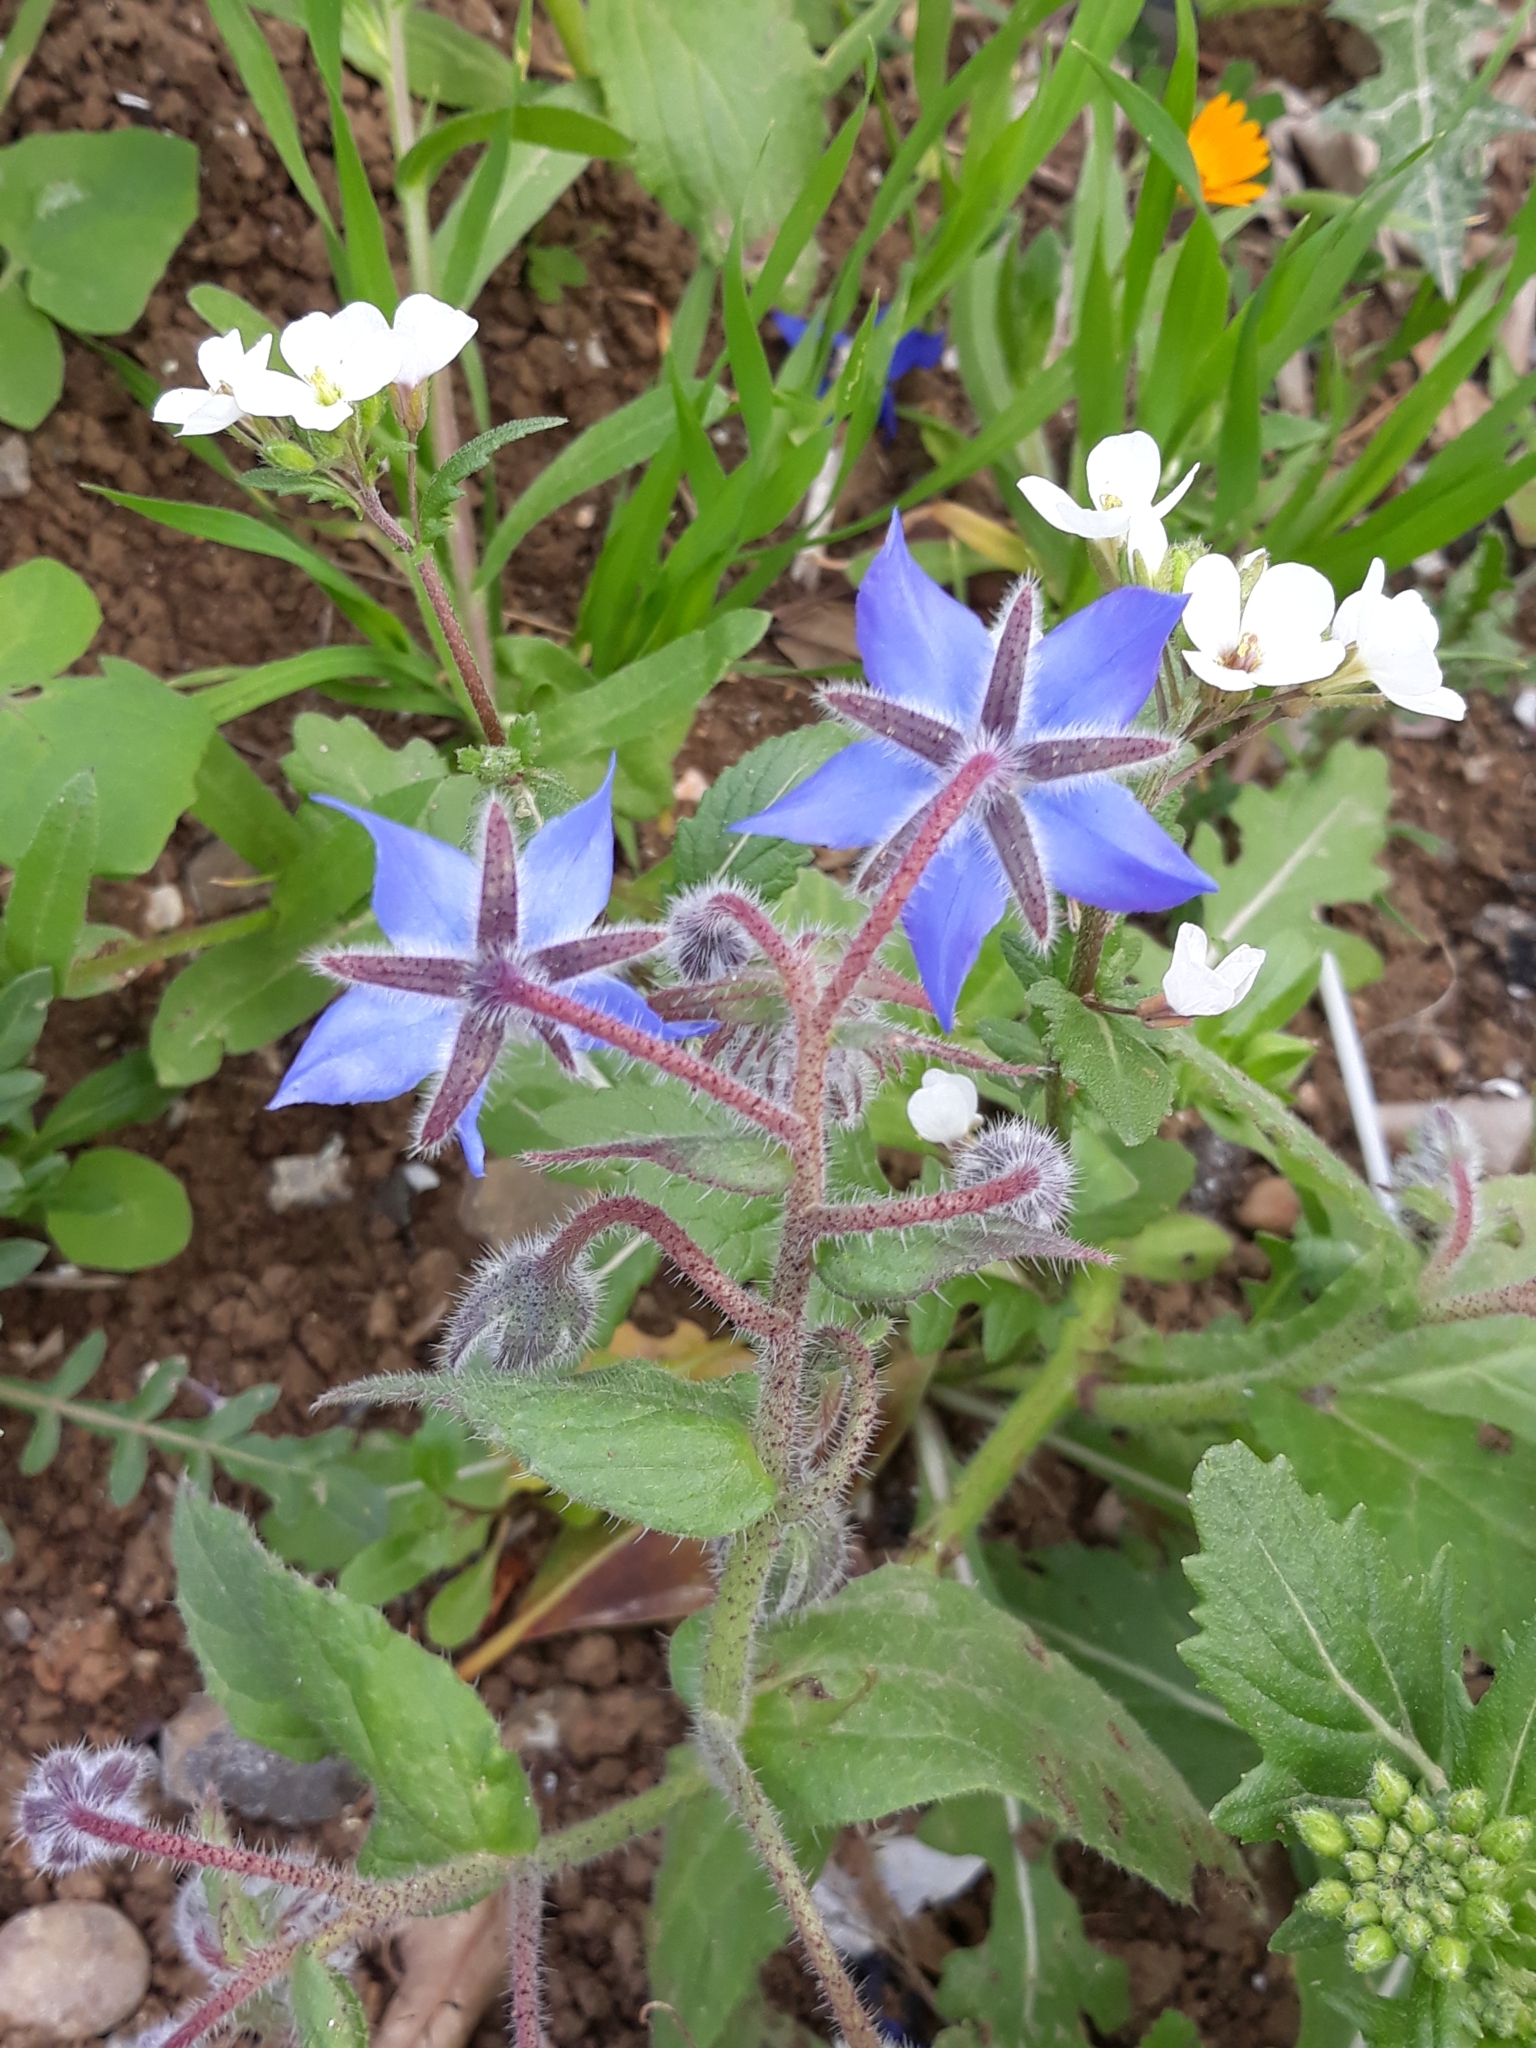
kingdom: Plantae
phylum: Tracheophyta
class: Magnoliopsida
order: Boraginales
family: Boraginaceae
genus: Borago
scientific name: Borago officinalis
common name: Borage
